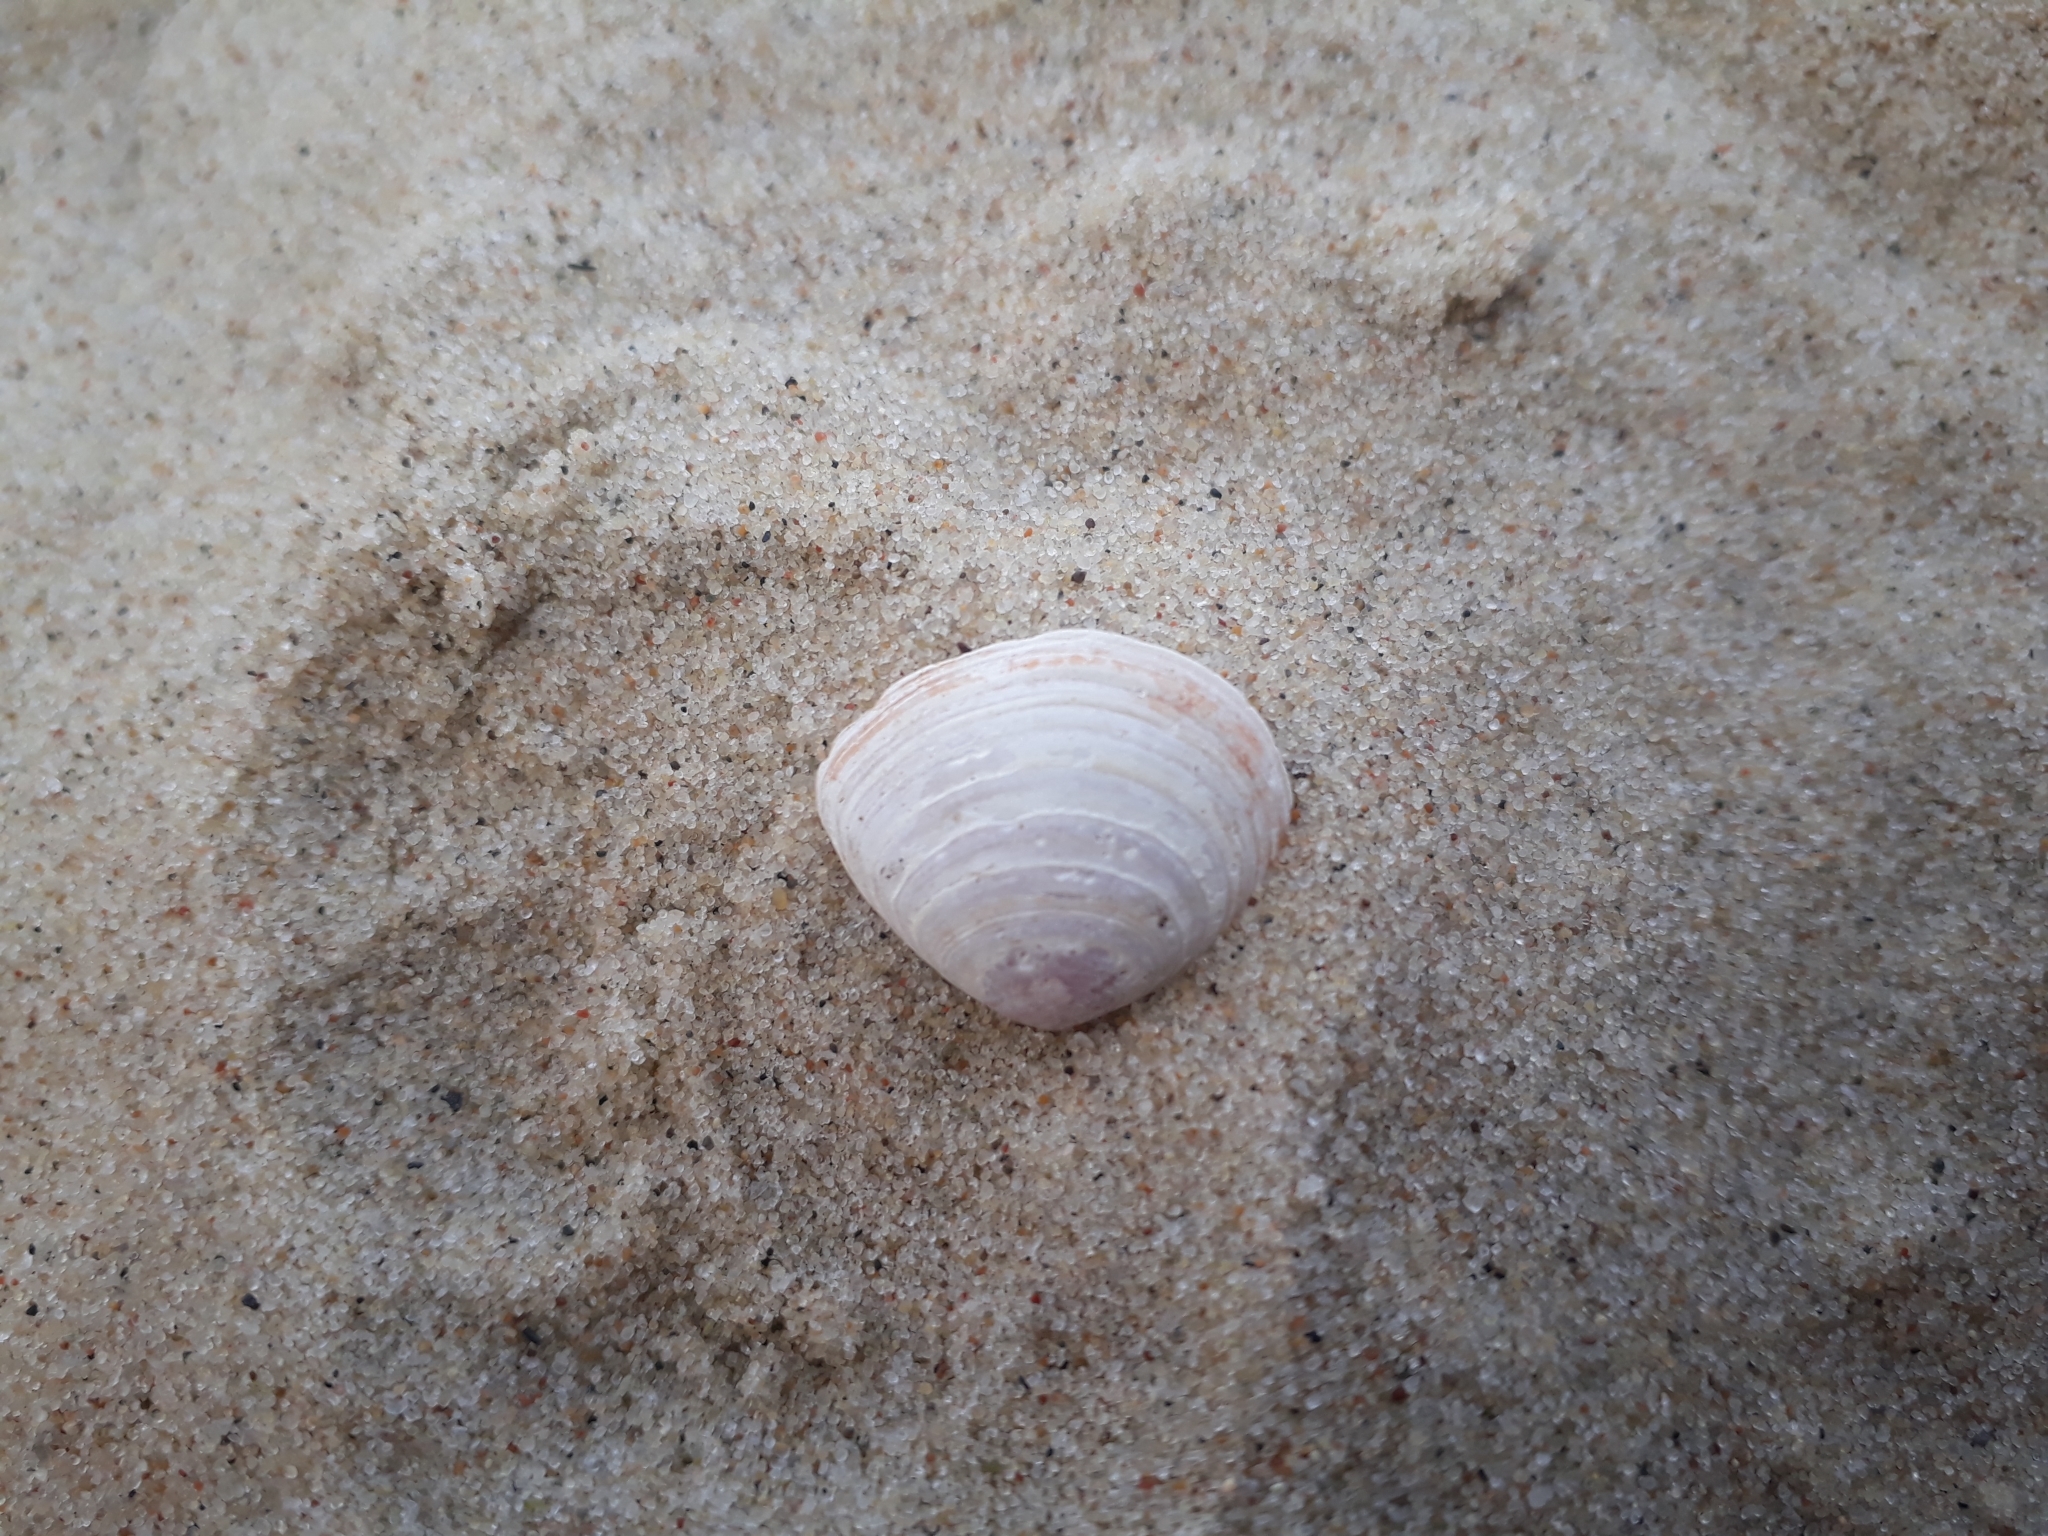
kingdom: Animalia
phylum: Mollusca
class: Bivalvia
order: Cardiida
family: Tellinidae
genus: Macoma
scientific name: Macoma balthica
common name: Baltic tellin
